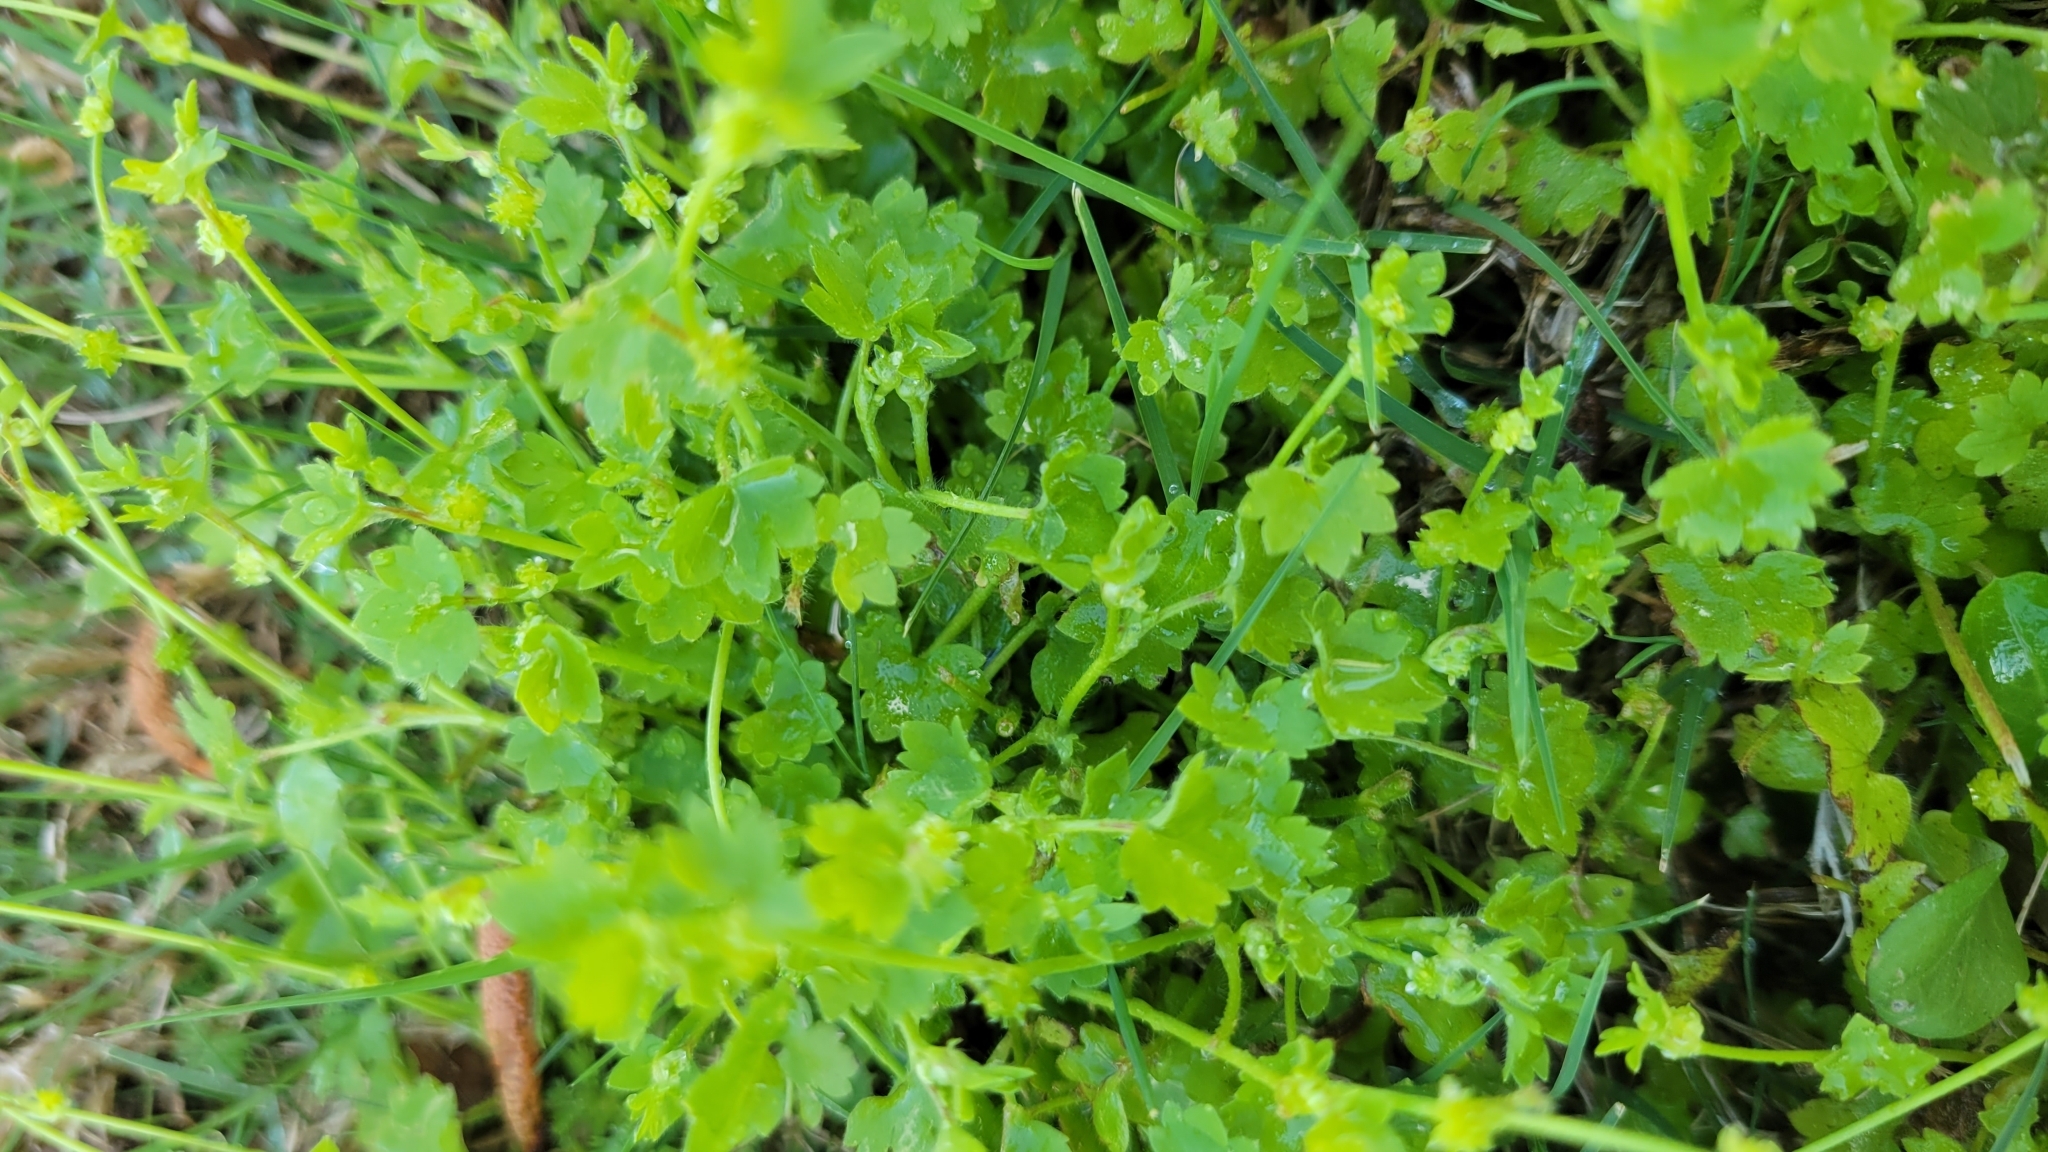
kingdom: Plantae
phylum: Tracheophyta
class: Magnoliopsida
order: Ranunculales
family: Ranunculaceae
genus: Ranunculus
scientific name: Ranunculus platensis
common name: Prairie buttercup
